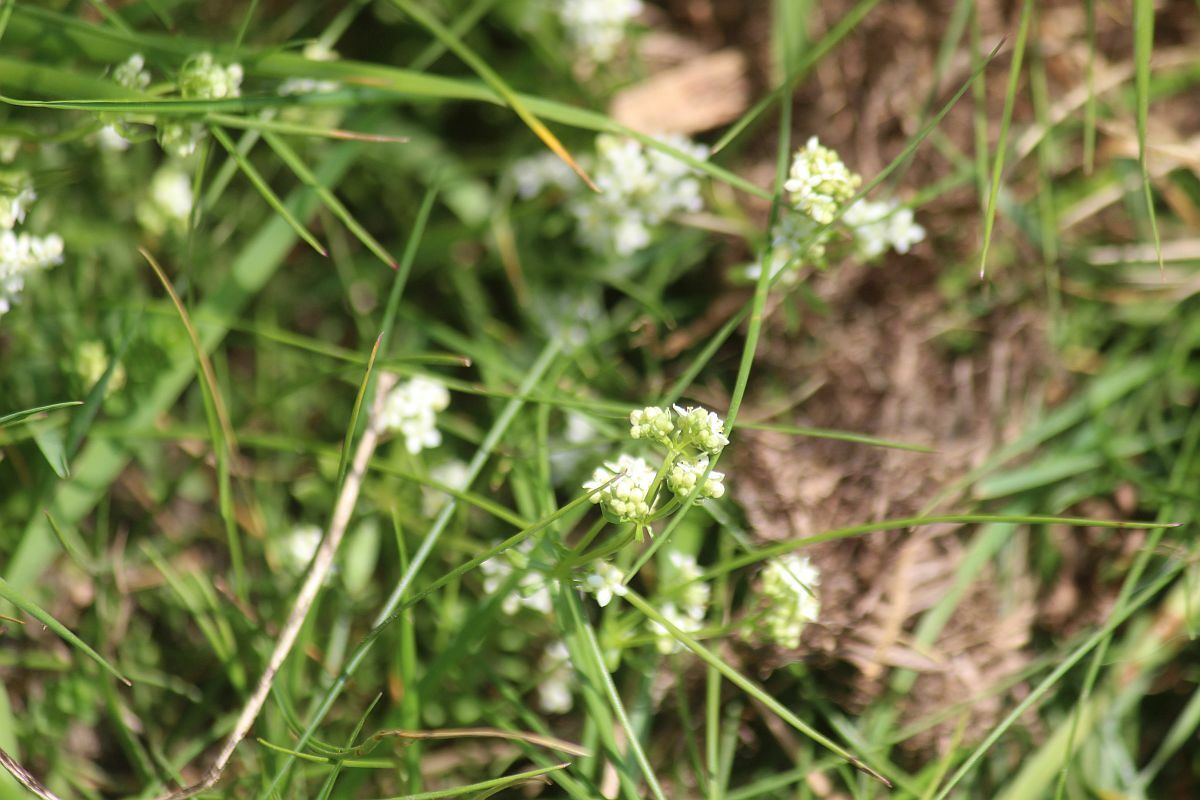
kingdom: Plantae
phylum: Tracheophyta
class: Magnoliopsida
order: Gentianales
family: Rubiaceae
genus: Galium
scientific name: Galium saxatile
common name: Heath bedstraw
